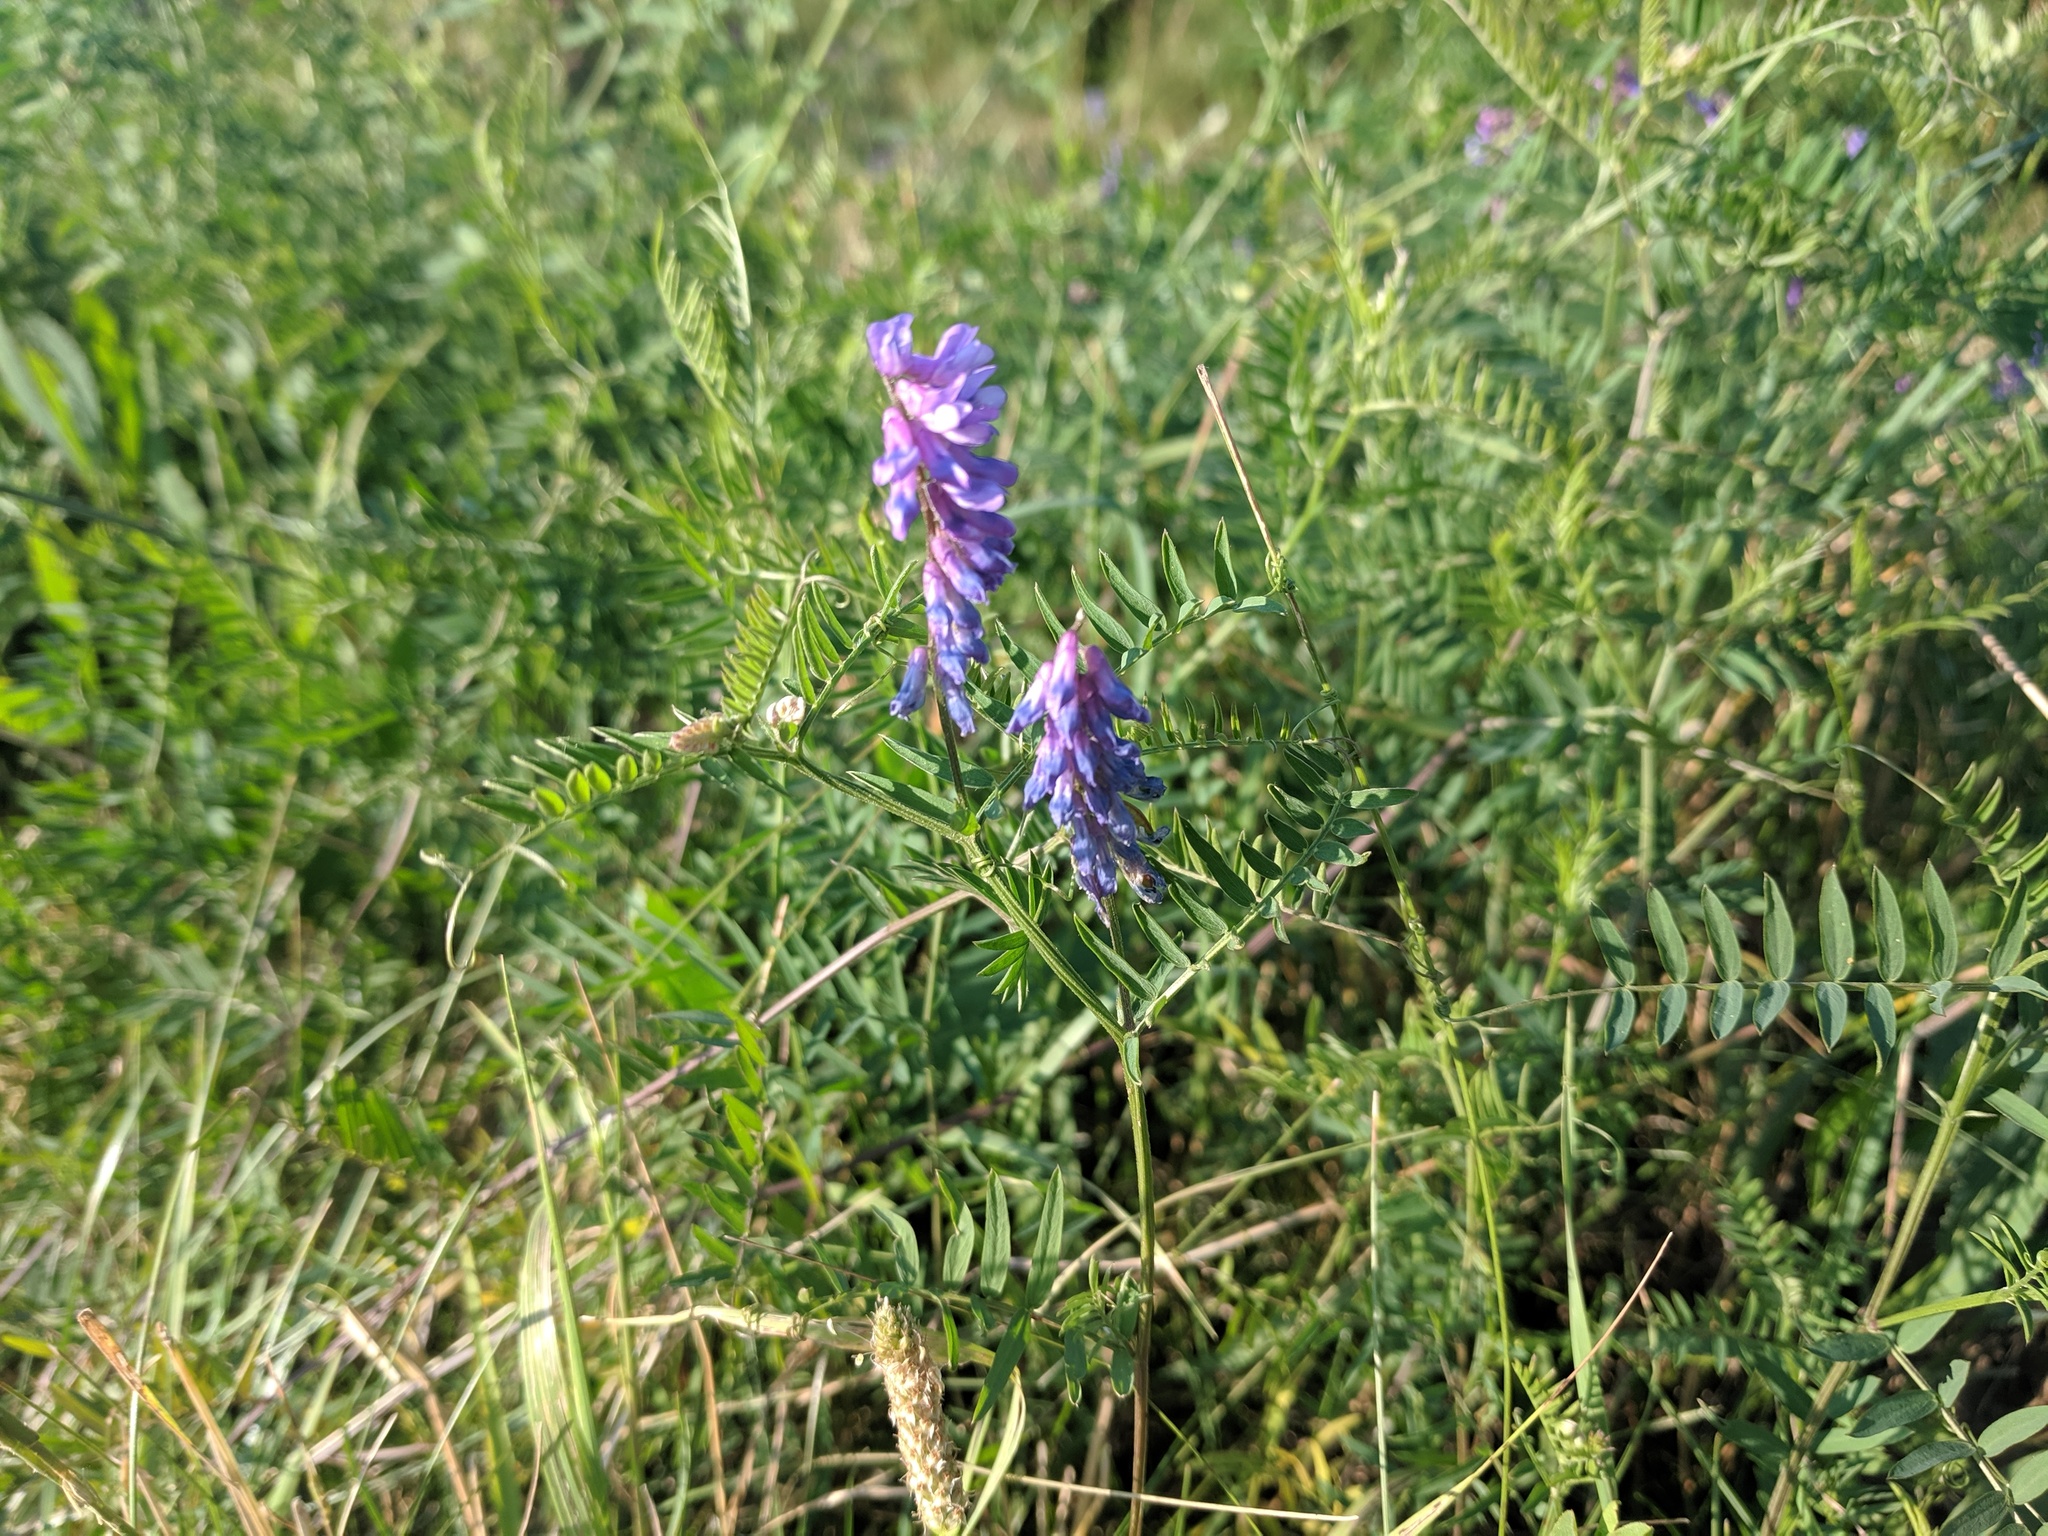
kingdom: Plantae
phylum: Tracheophyta
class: Magnoliopsida
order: Fabales
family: Fabaceae
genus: Vicia
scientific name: Vicia cracca
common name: Bird vetch
